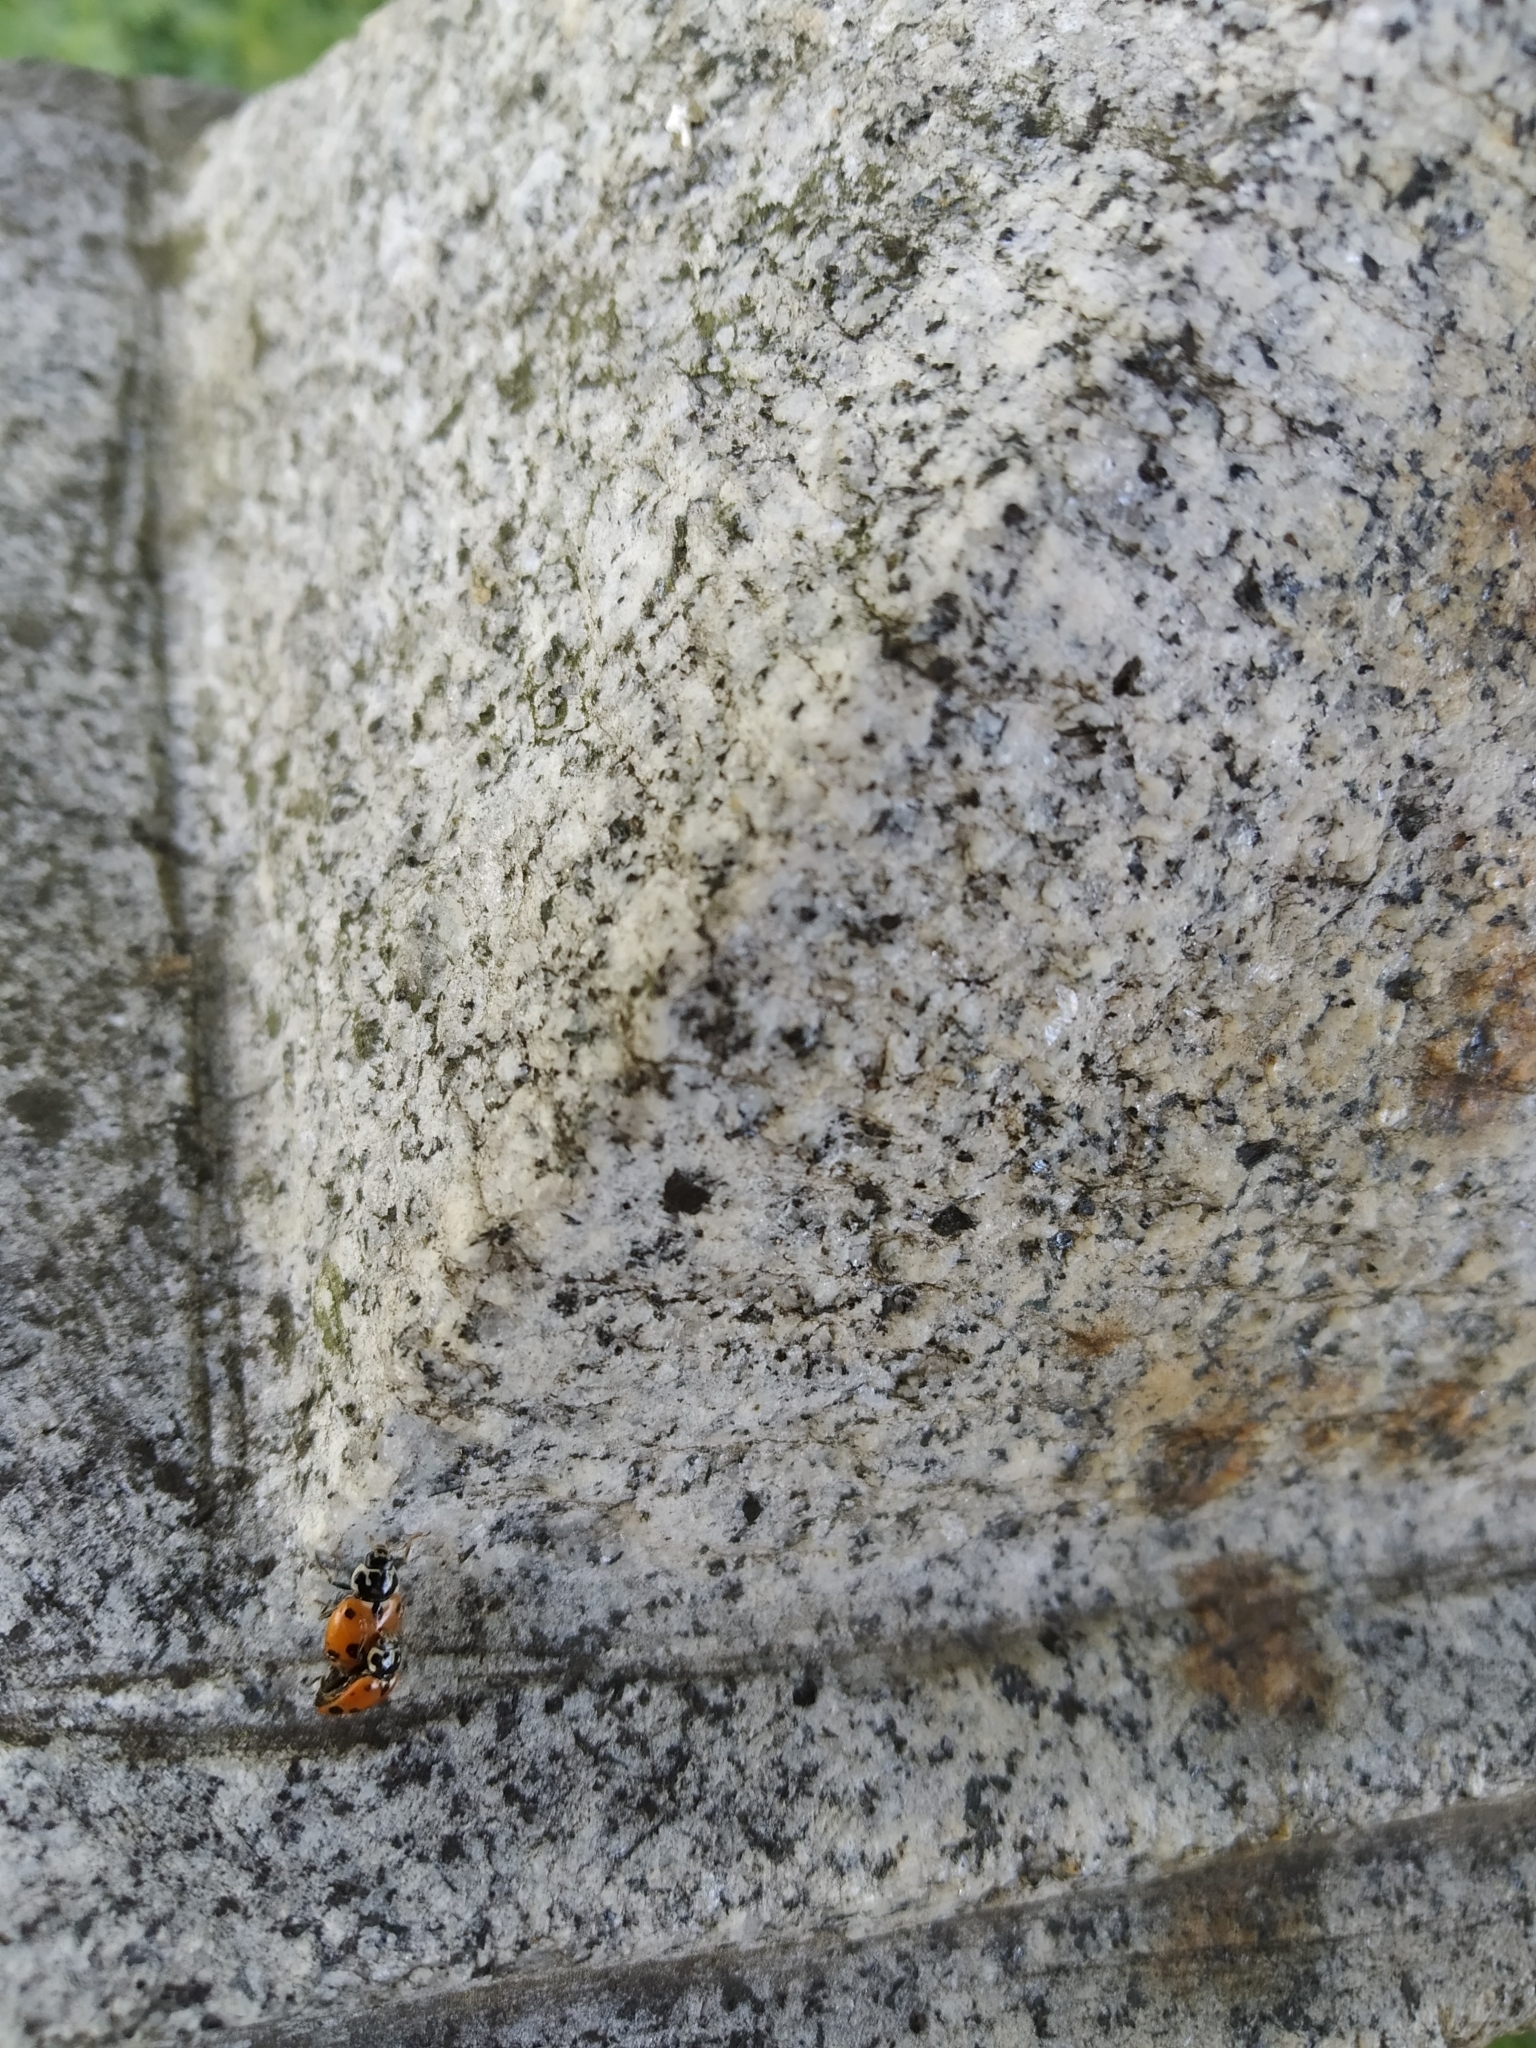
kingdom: Animalia
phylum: Arthropoda
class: Insecta
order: Coleoptera
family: Coccinellidae
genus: Hippodamia
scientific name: Hippodamia variegata
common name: Ladybird beetle
